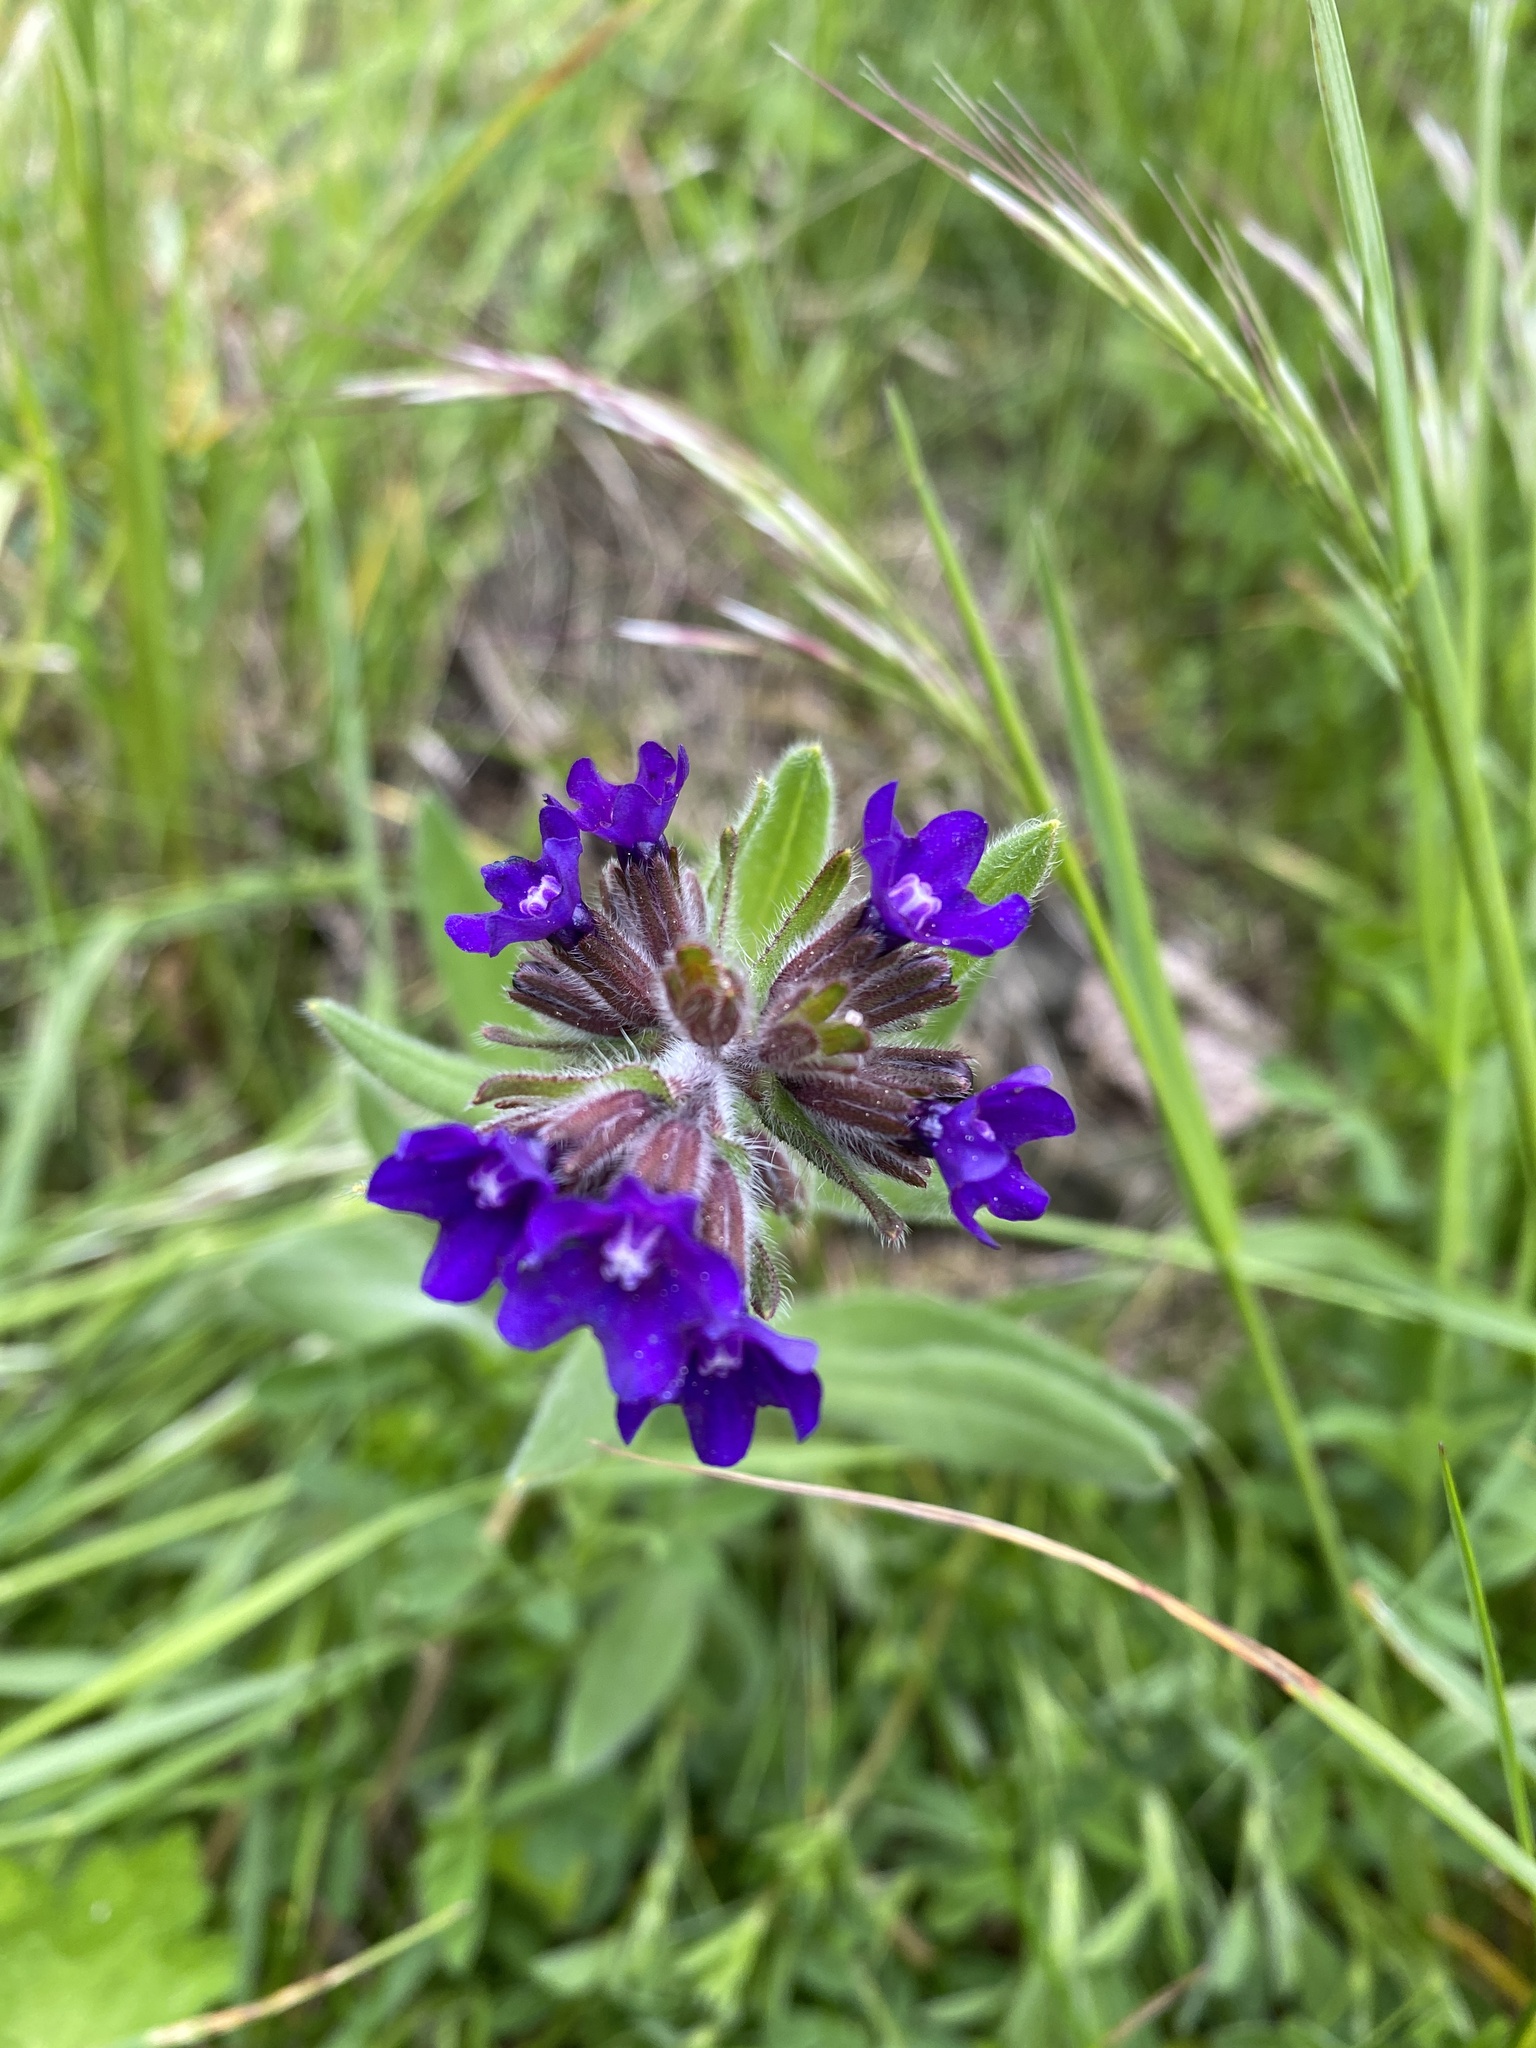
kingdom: Plantae
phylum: Tracheophyta
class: Magnoliopsida
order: Boraginales
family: Boraginaceae
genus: Anchusa
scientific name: Anchusa officinalis
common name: Alkanet
